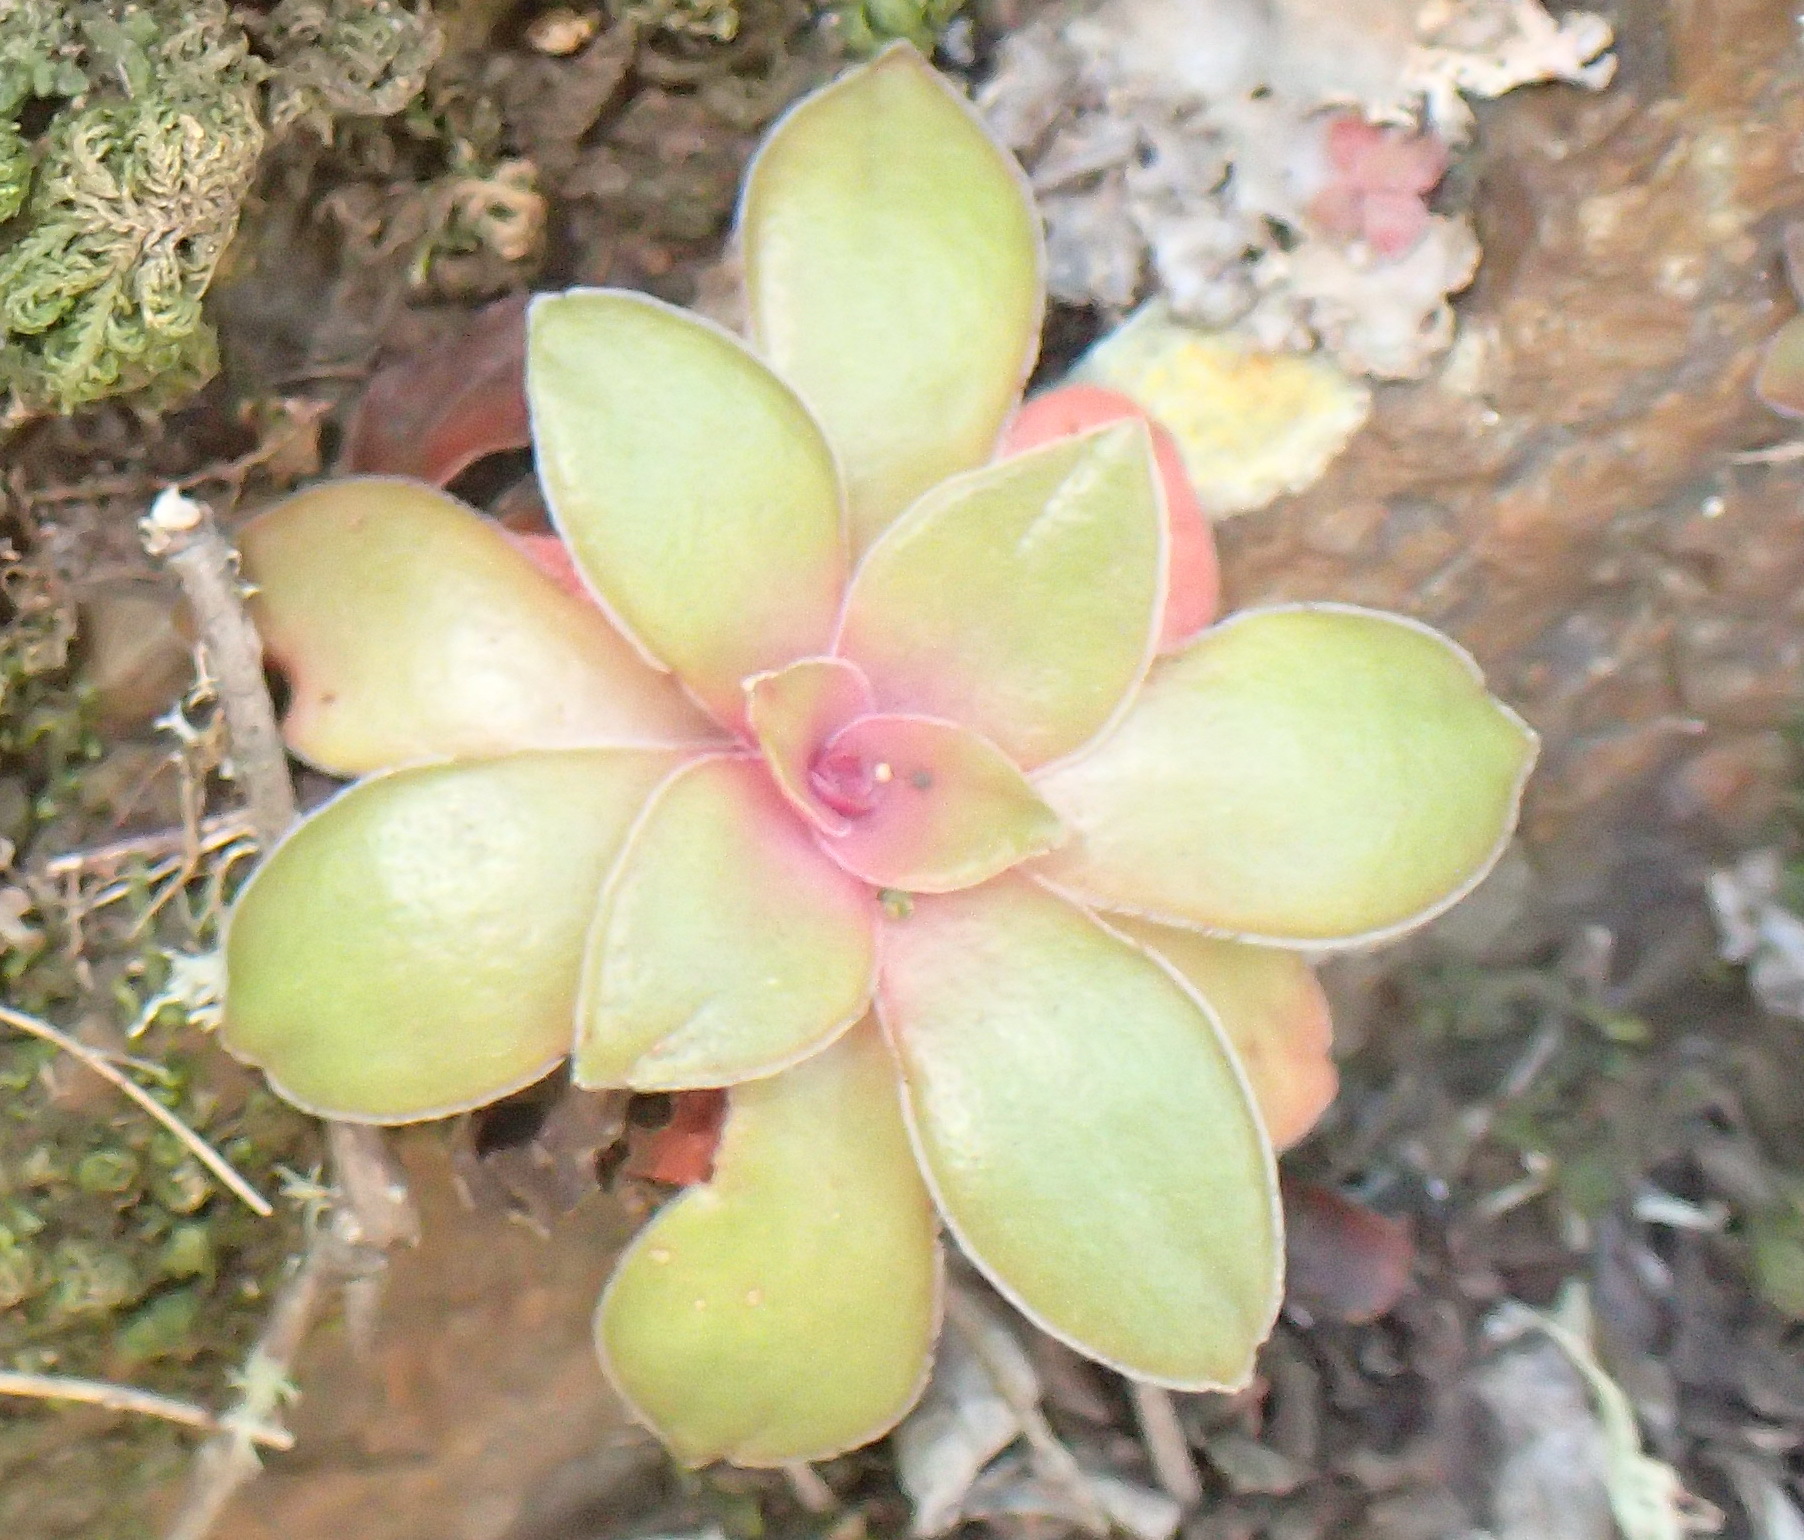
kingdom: Plantae
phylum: Tracheophyta
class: Magnoliopsida
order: Saxifragales
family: Crassulaceae
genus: Crassula
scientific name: Crassula orbicularis
